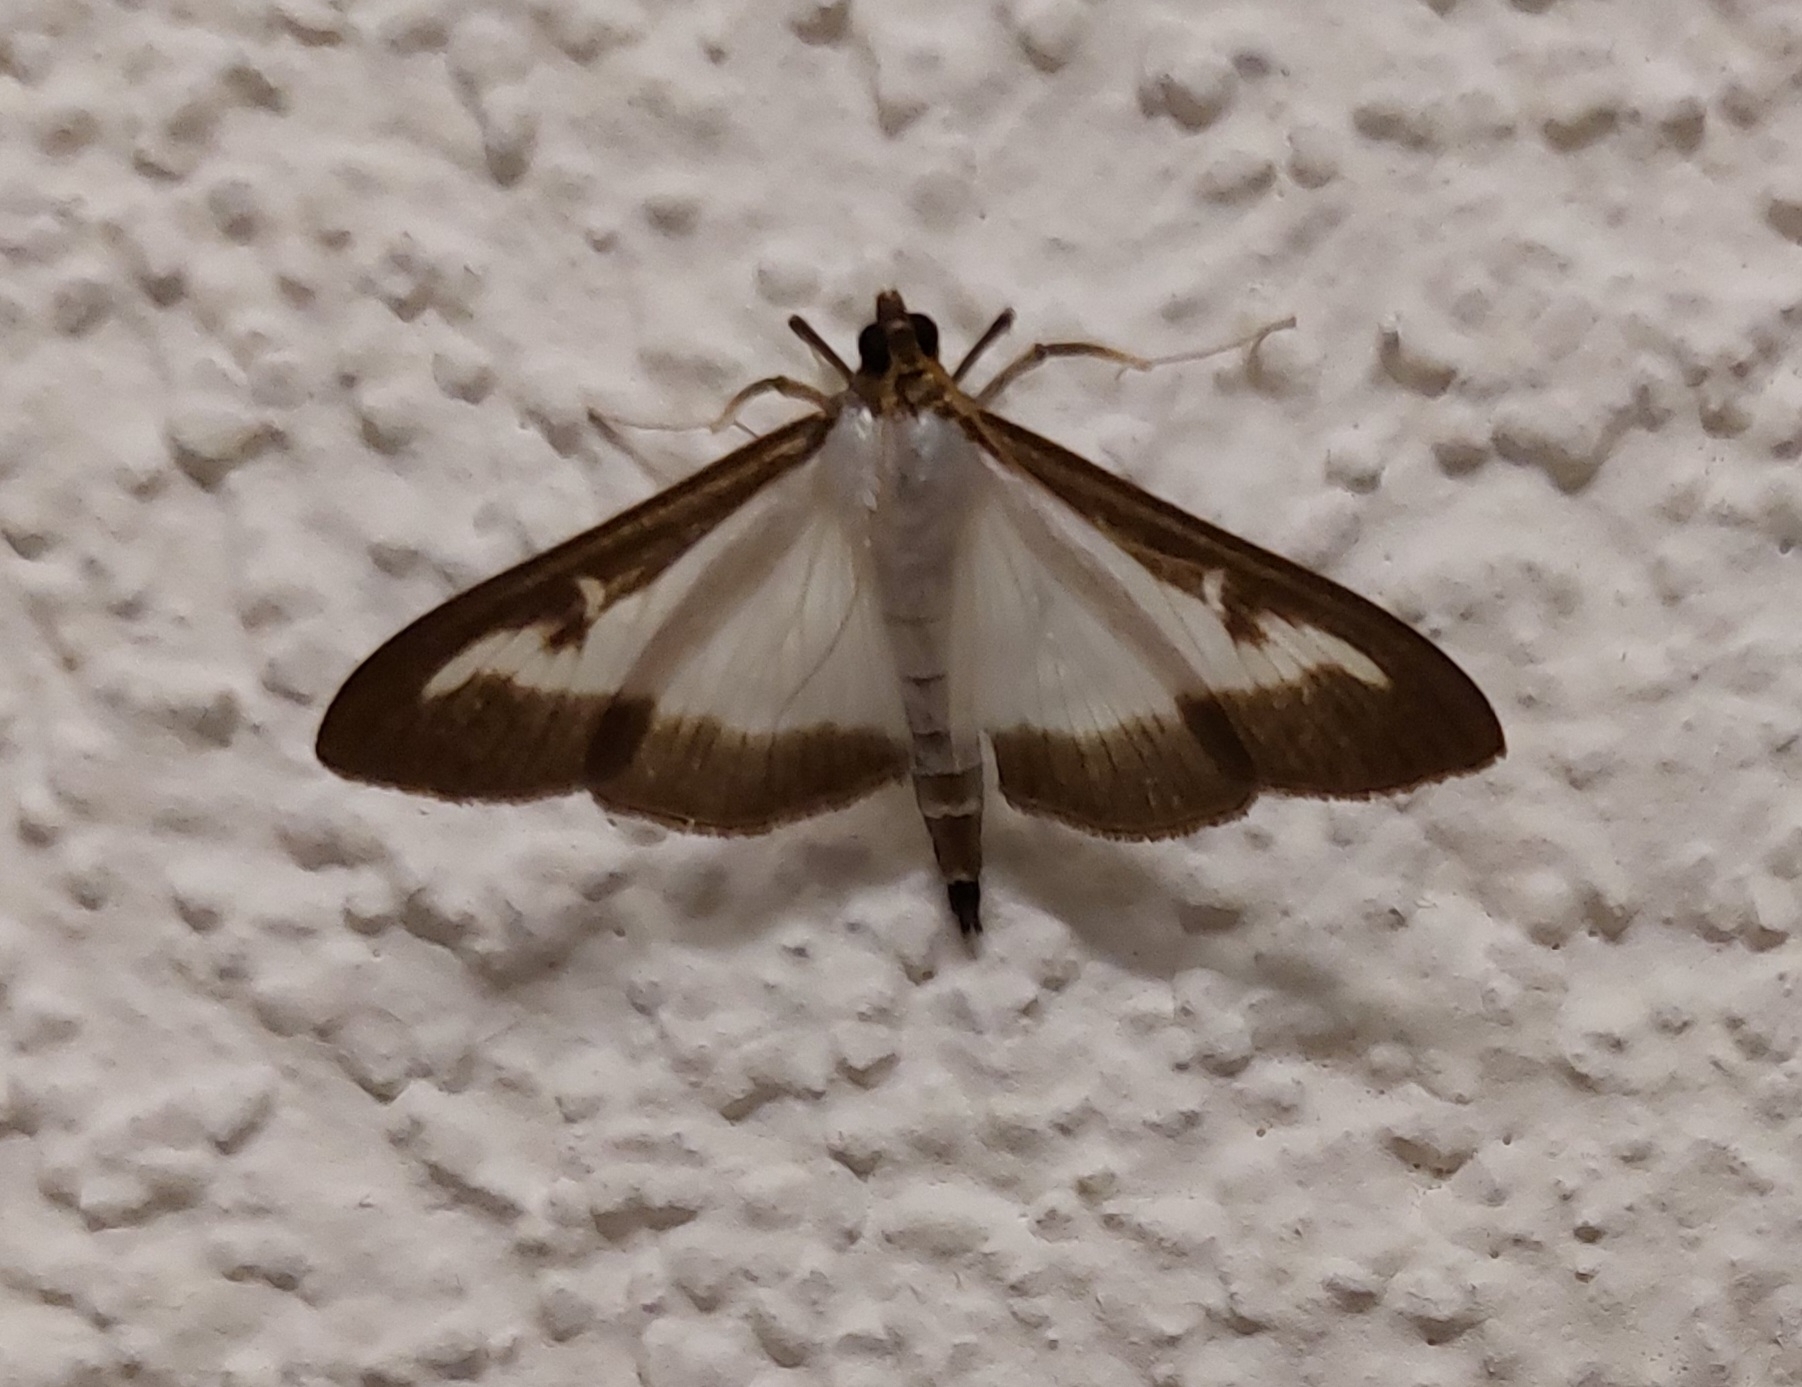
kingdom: Animalia
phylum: Arthropoda
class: Insecta
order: Lepidoptera
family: Crambidae
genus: Cydalima
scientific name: Cydalima perspectalis
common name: Box tree moth
